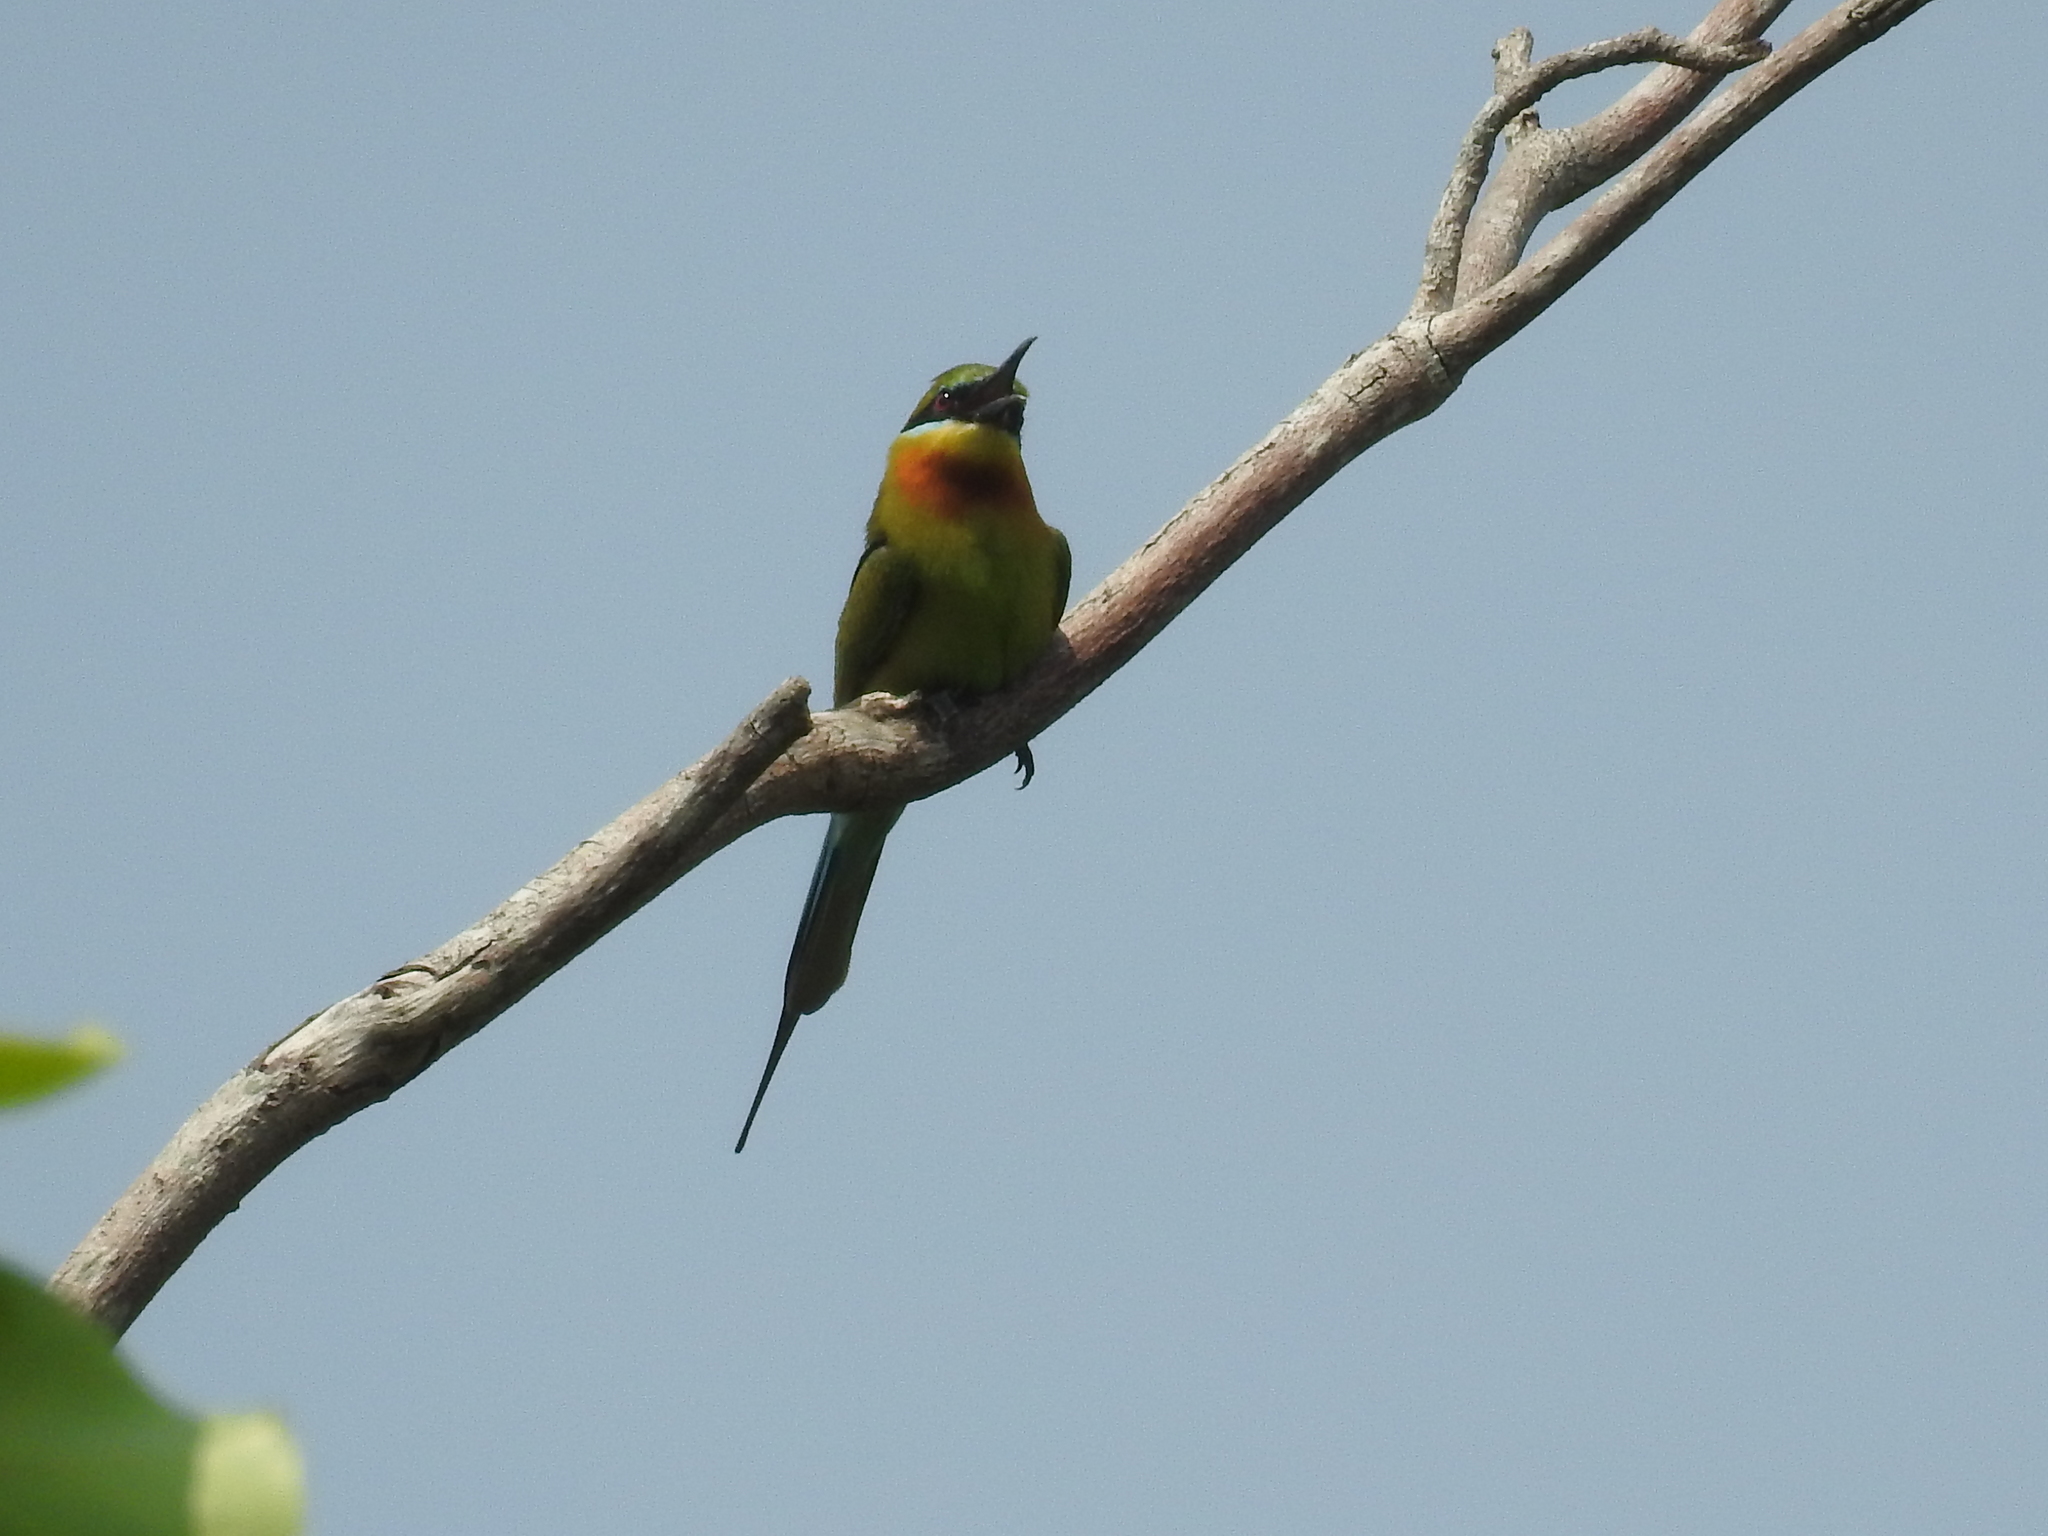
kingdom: Animalia
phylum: Chordata
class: Aves
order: Coraciiformes
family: Meropidae
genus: Merops
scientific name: Merops philippinus
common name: Blue-tailed bee-eater
